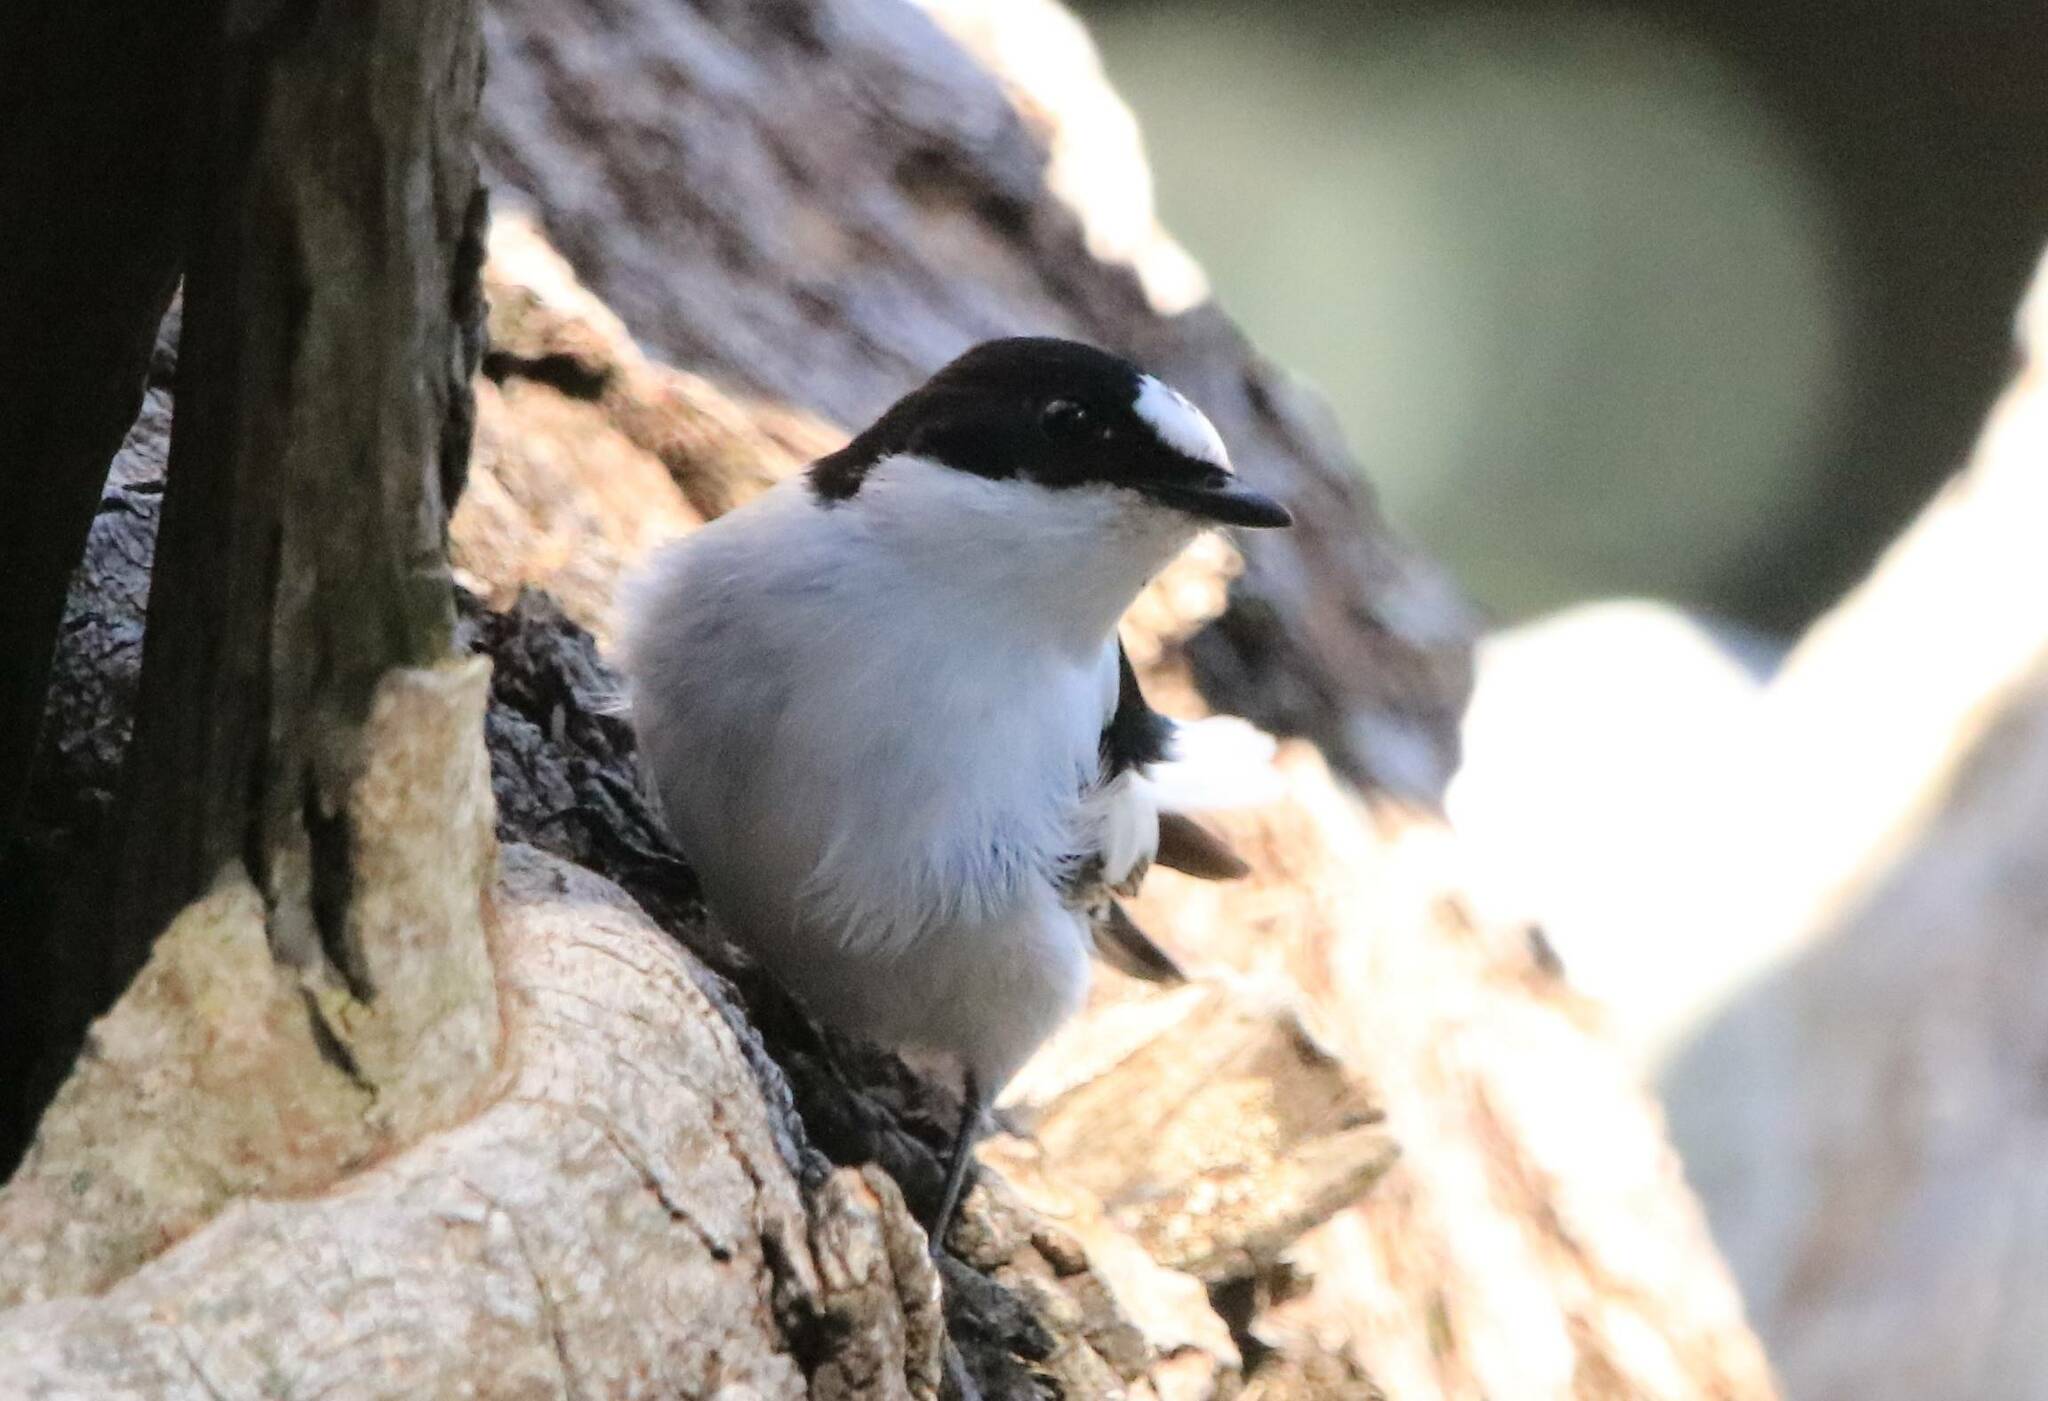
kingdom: Animalia
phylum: Chordata
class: Aves
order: Passeriformes
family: Muscicapidae
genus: Ficedula
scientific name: Ficedula speculigera
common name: Atlas pied flycatcher
